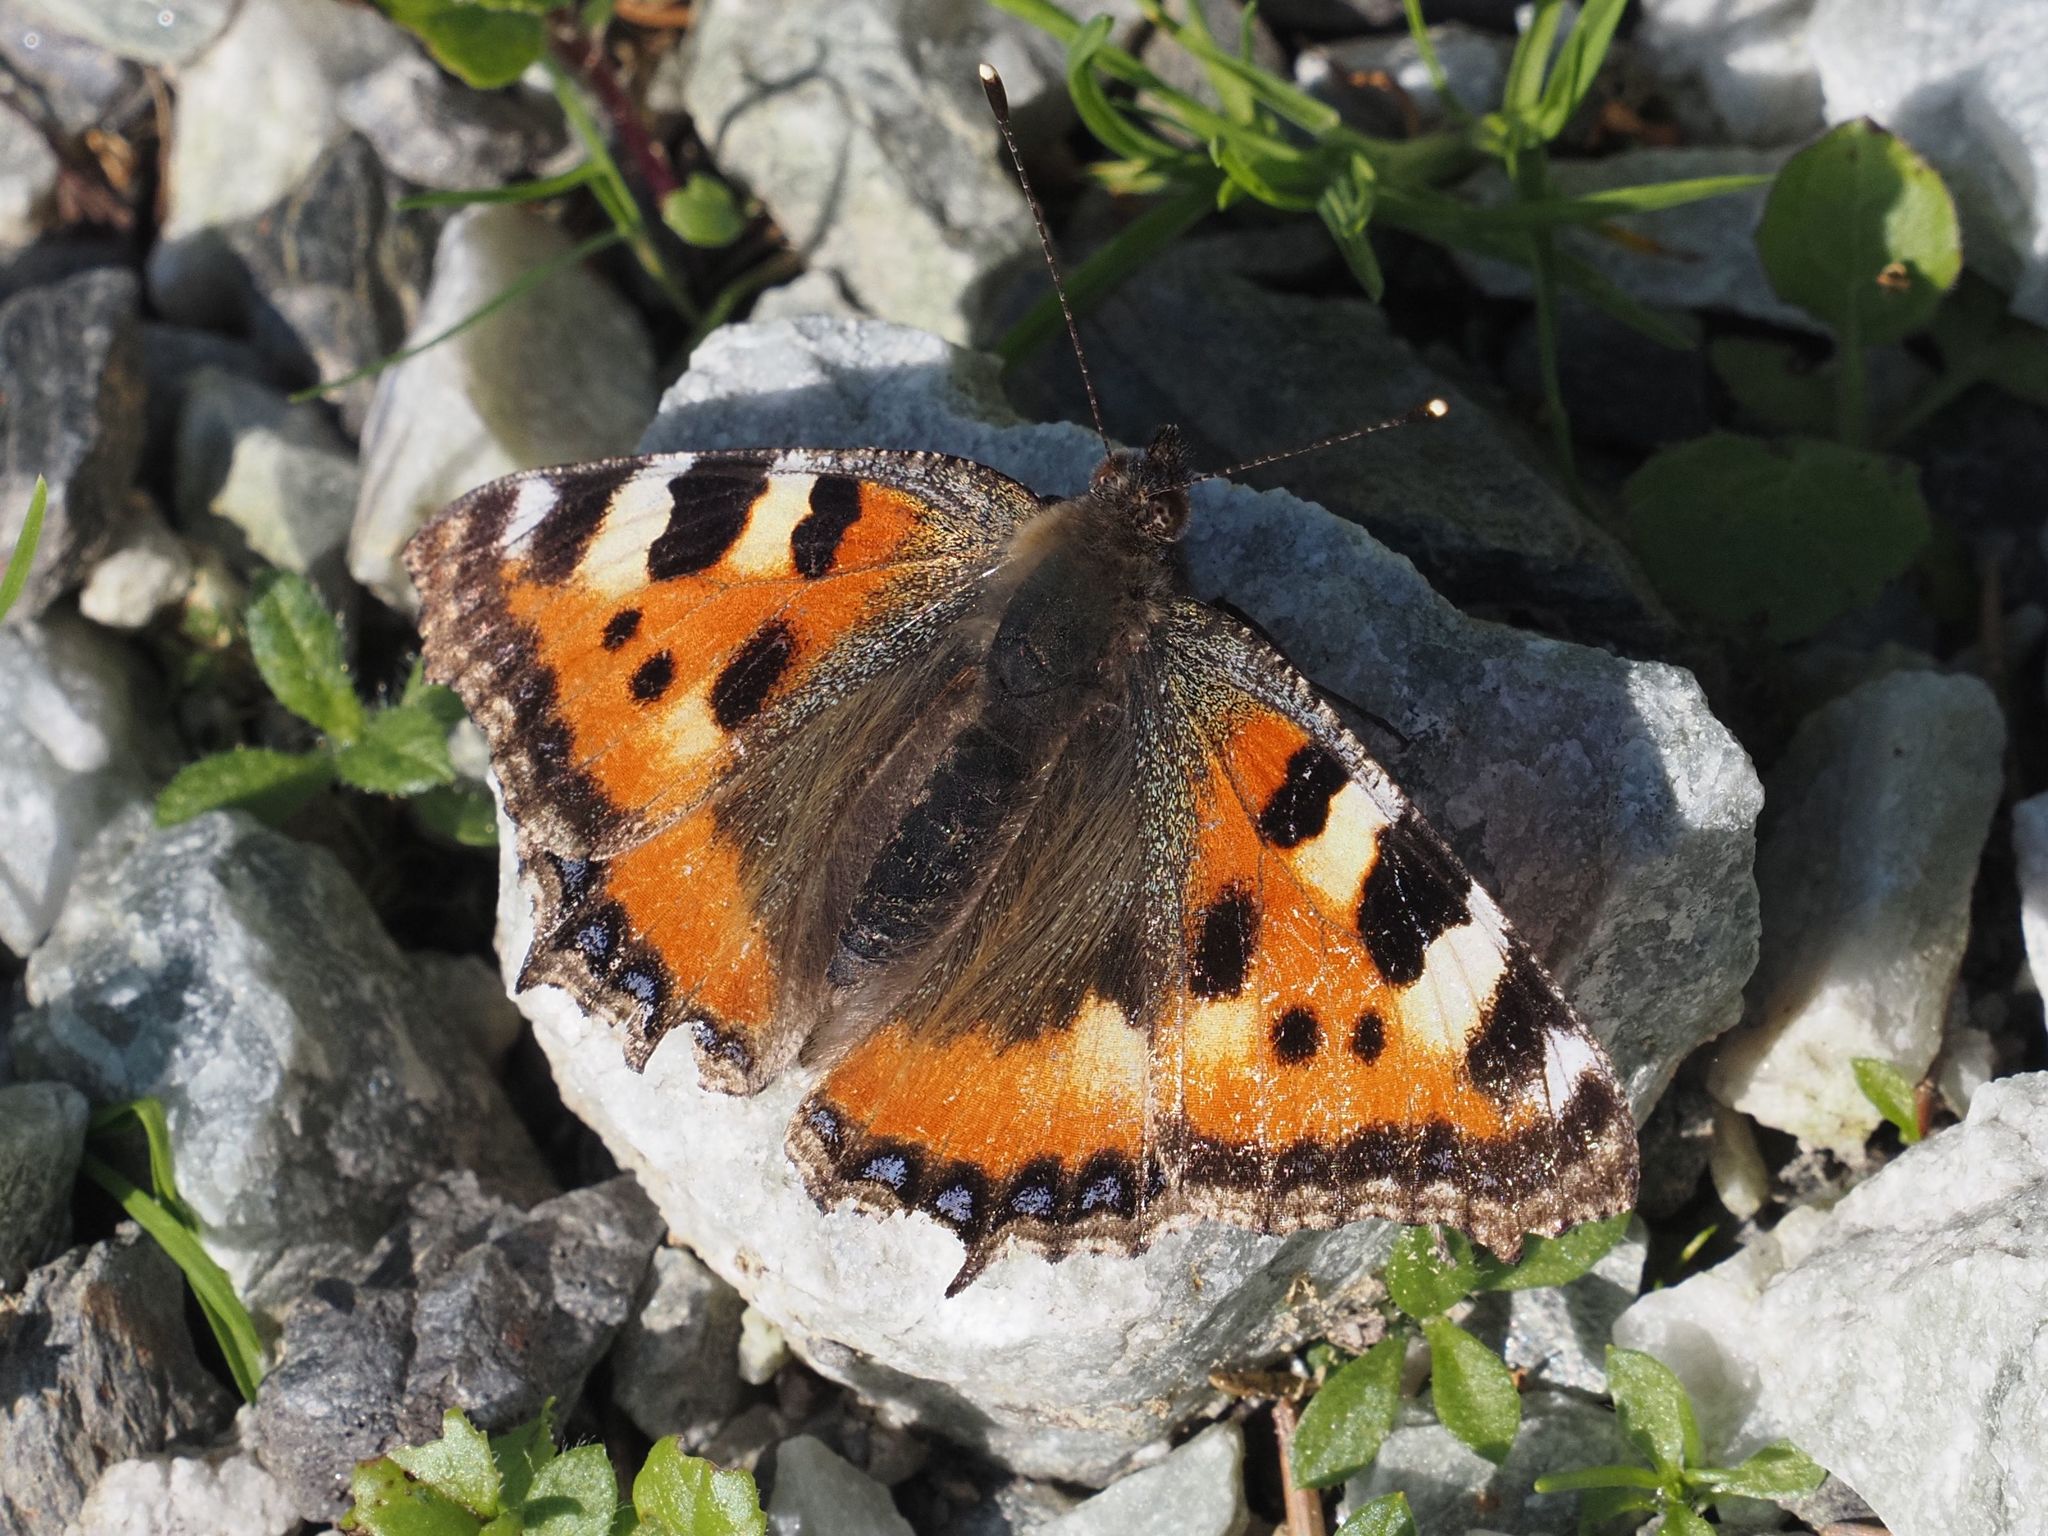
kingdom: Animalia
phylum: Arthropoda
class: Insecta
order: Lepidoptera
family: Nymphalidae
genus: Aglais
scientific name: Aglais urticae
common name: Small tortoiseshell
